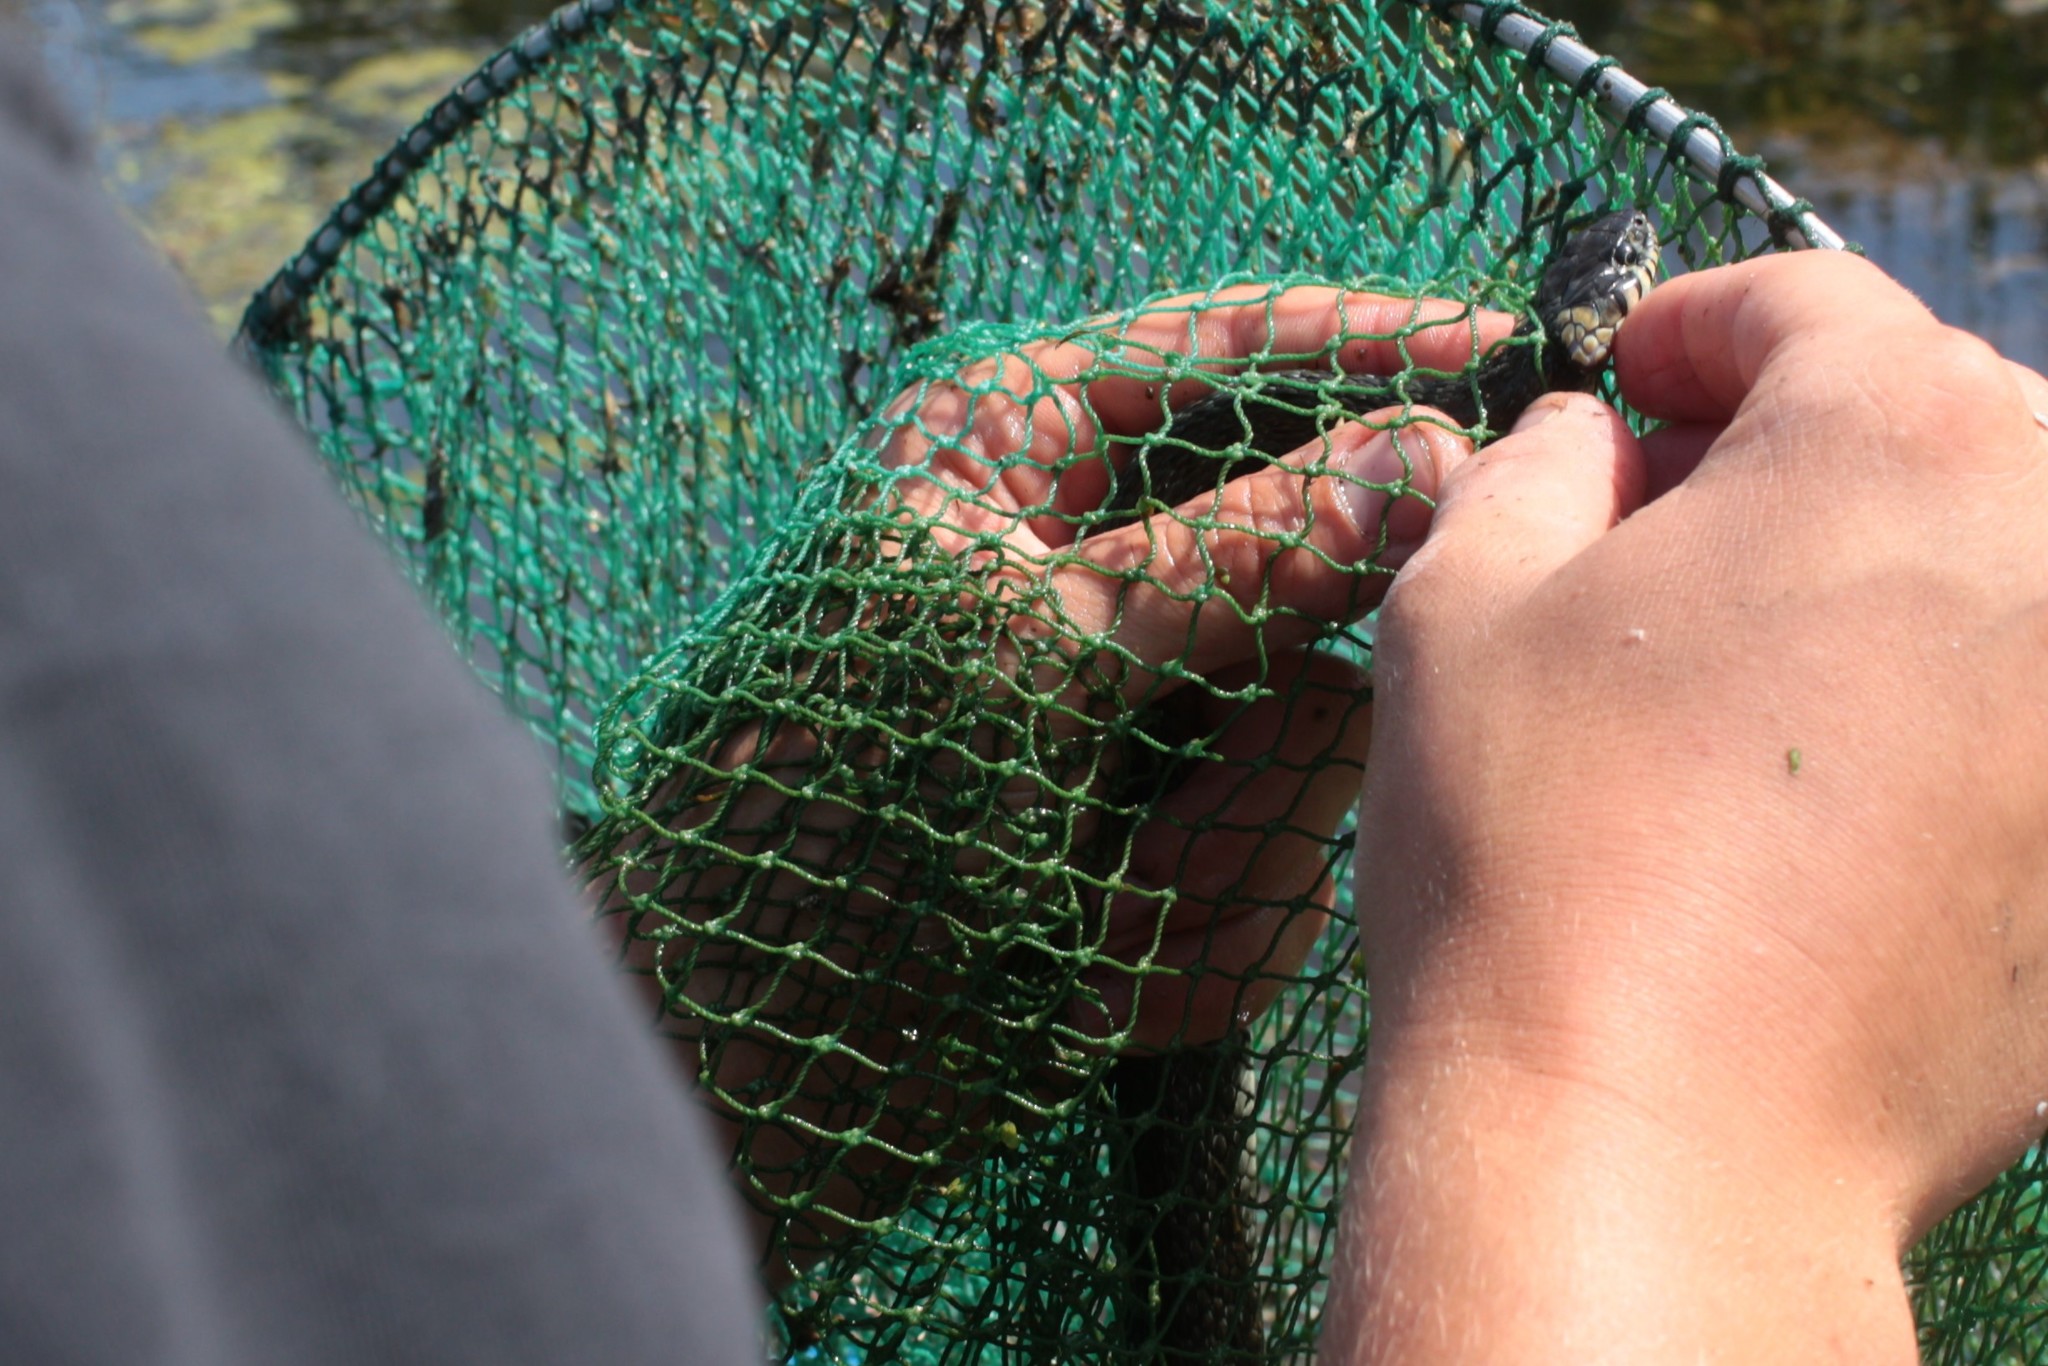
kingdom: Animalia
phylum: Chordata
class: Squamata
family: Colubridae
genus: Natrix
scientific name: Natrix natrix
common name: Grass snake
